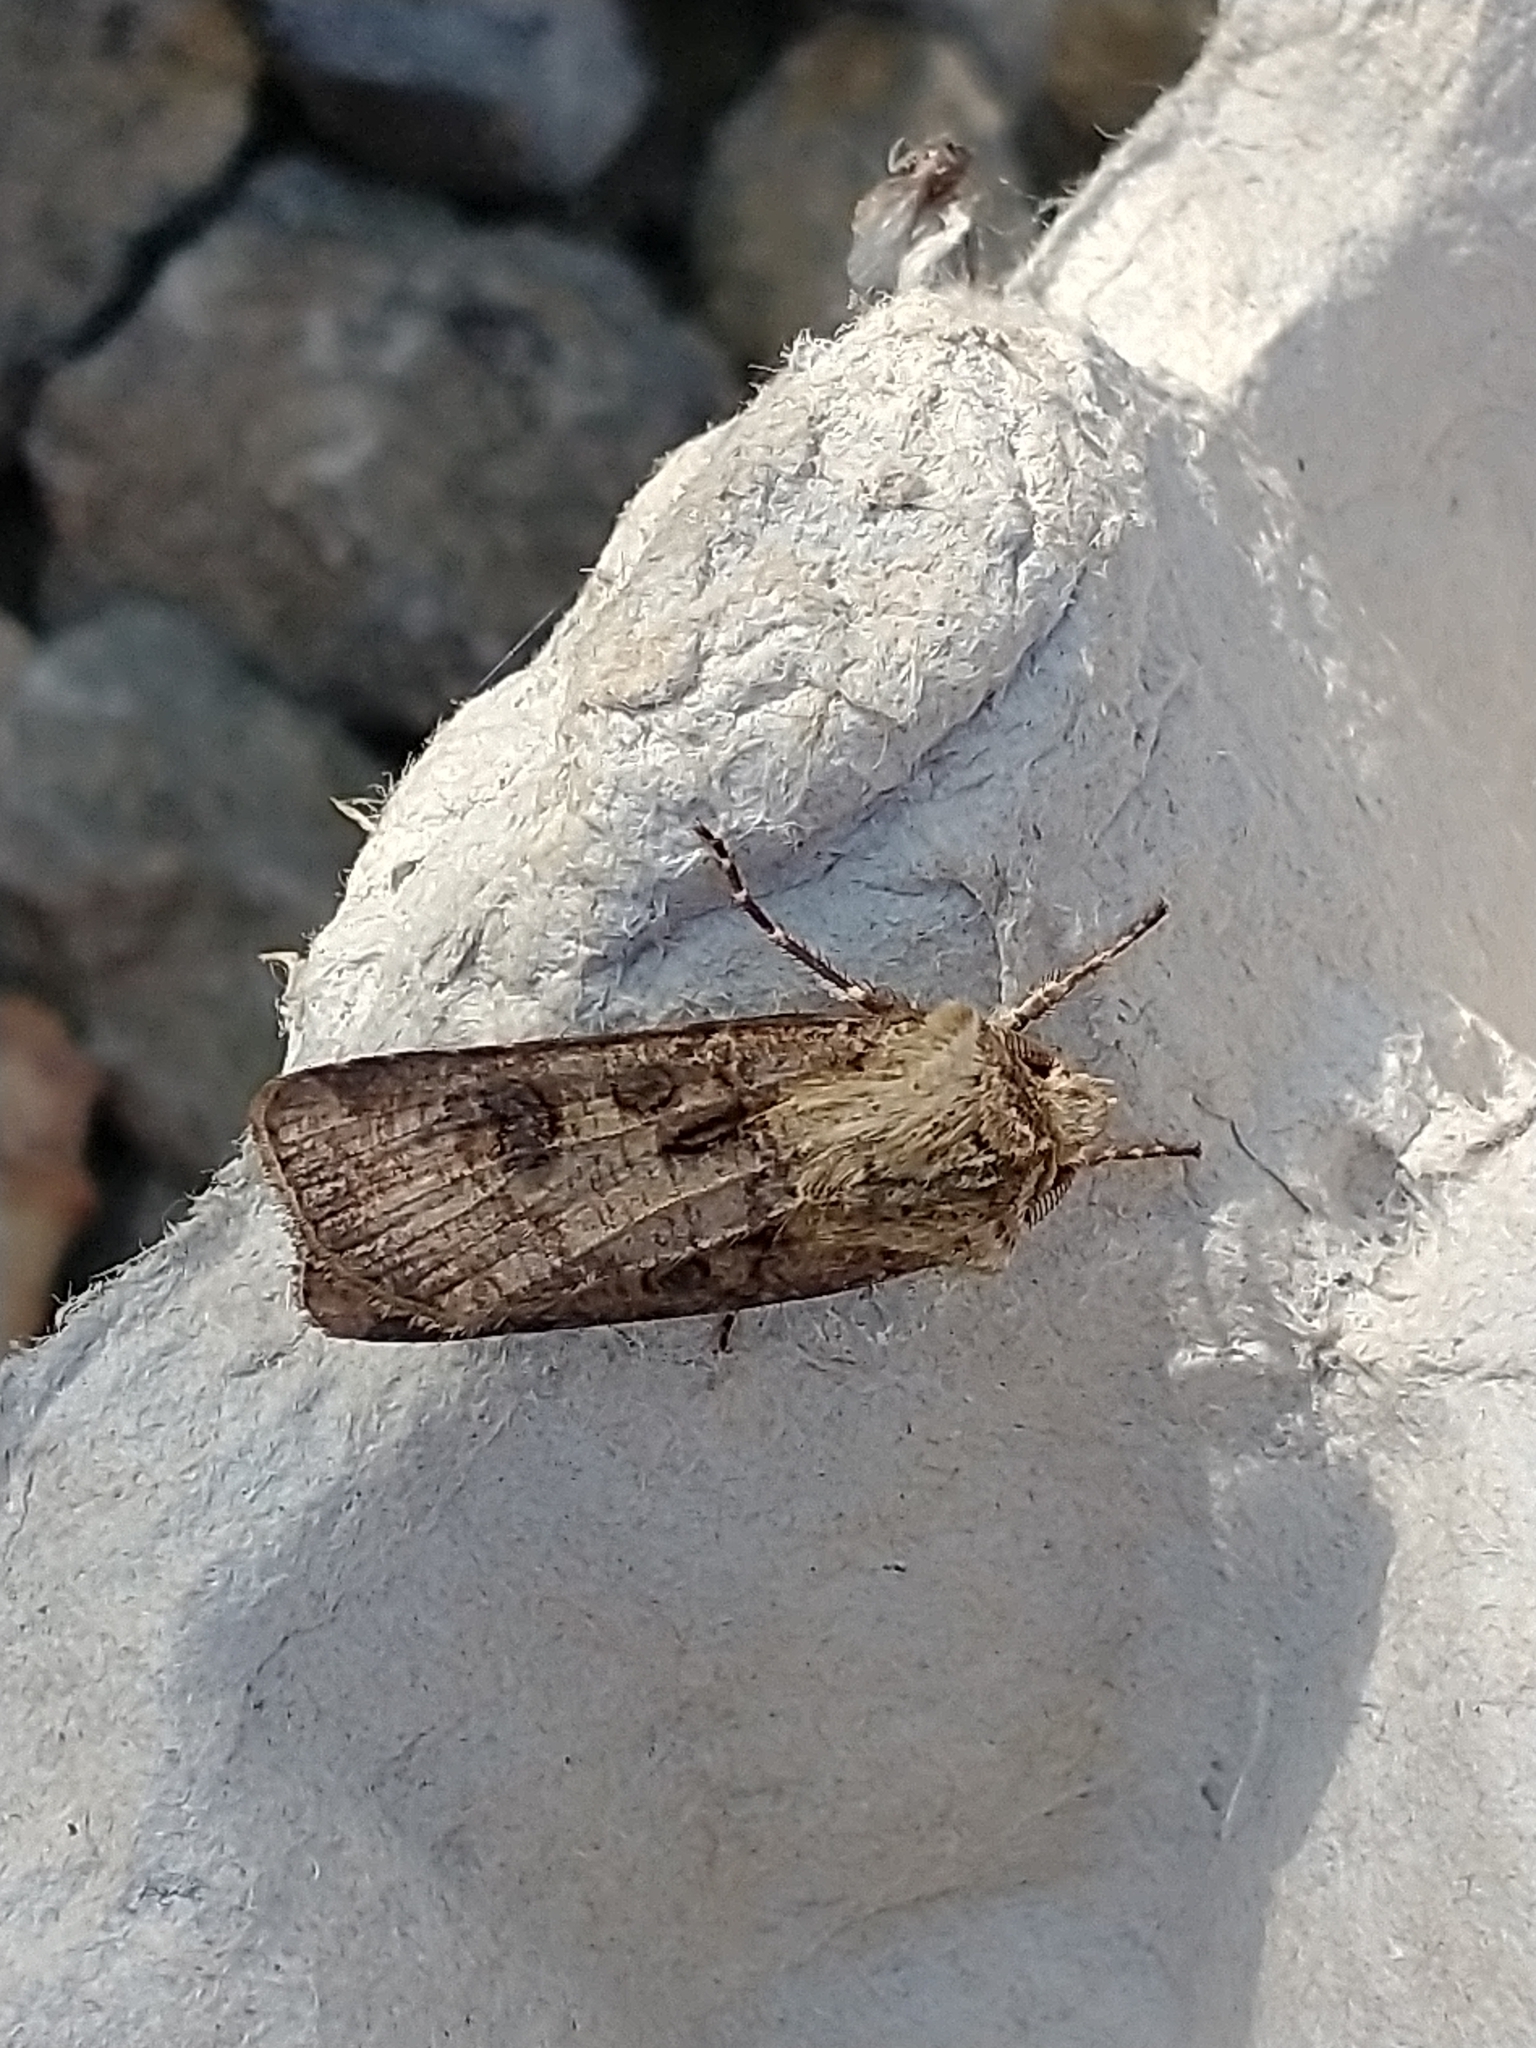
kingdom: Animalia
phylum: Arthropoda
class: Insecta
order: Lepidoptera
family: Noctuidae
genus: Agrotis
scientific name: Agrotis clavis
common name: Heart and club
